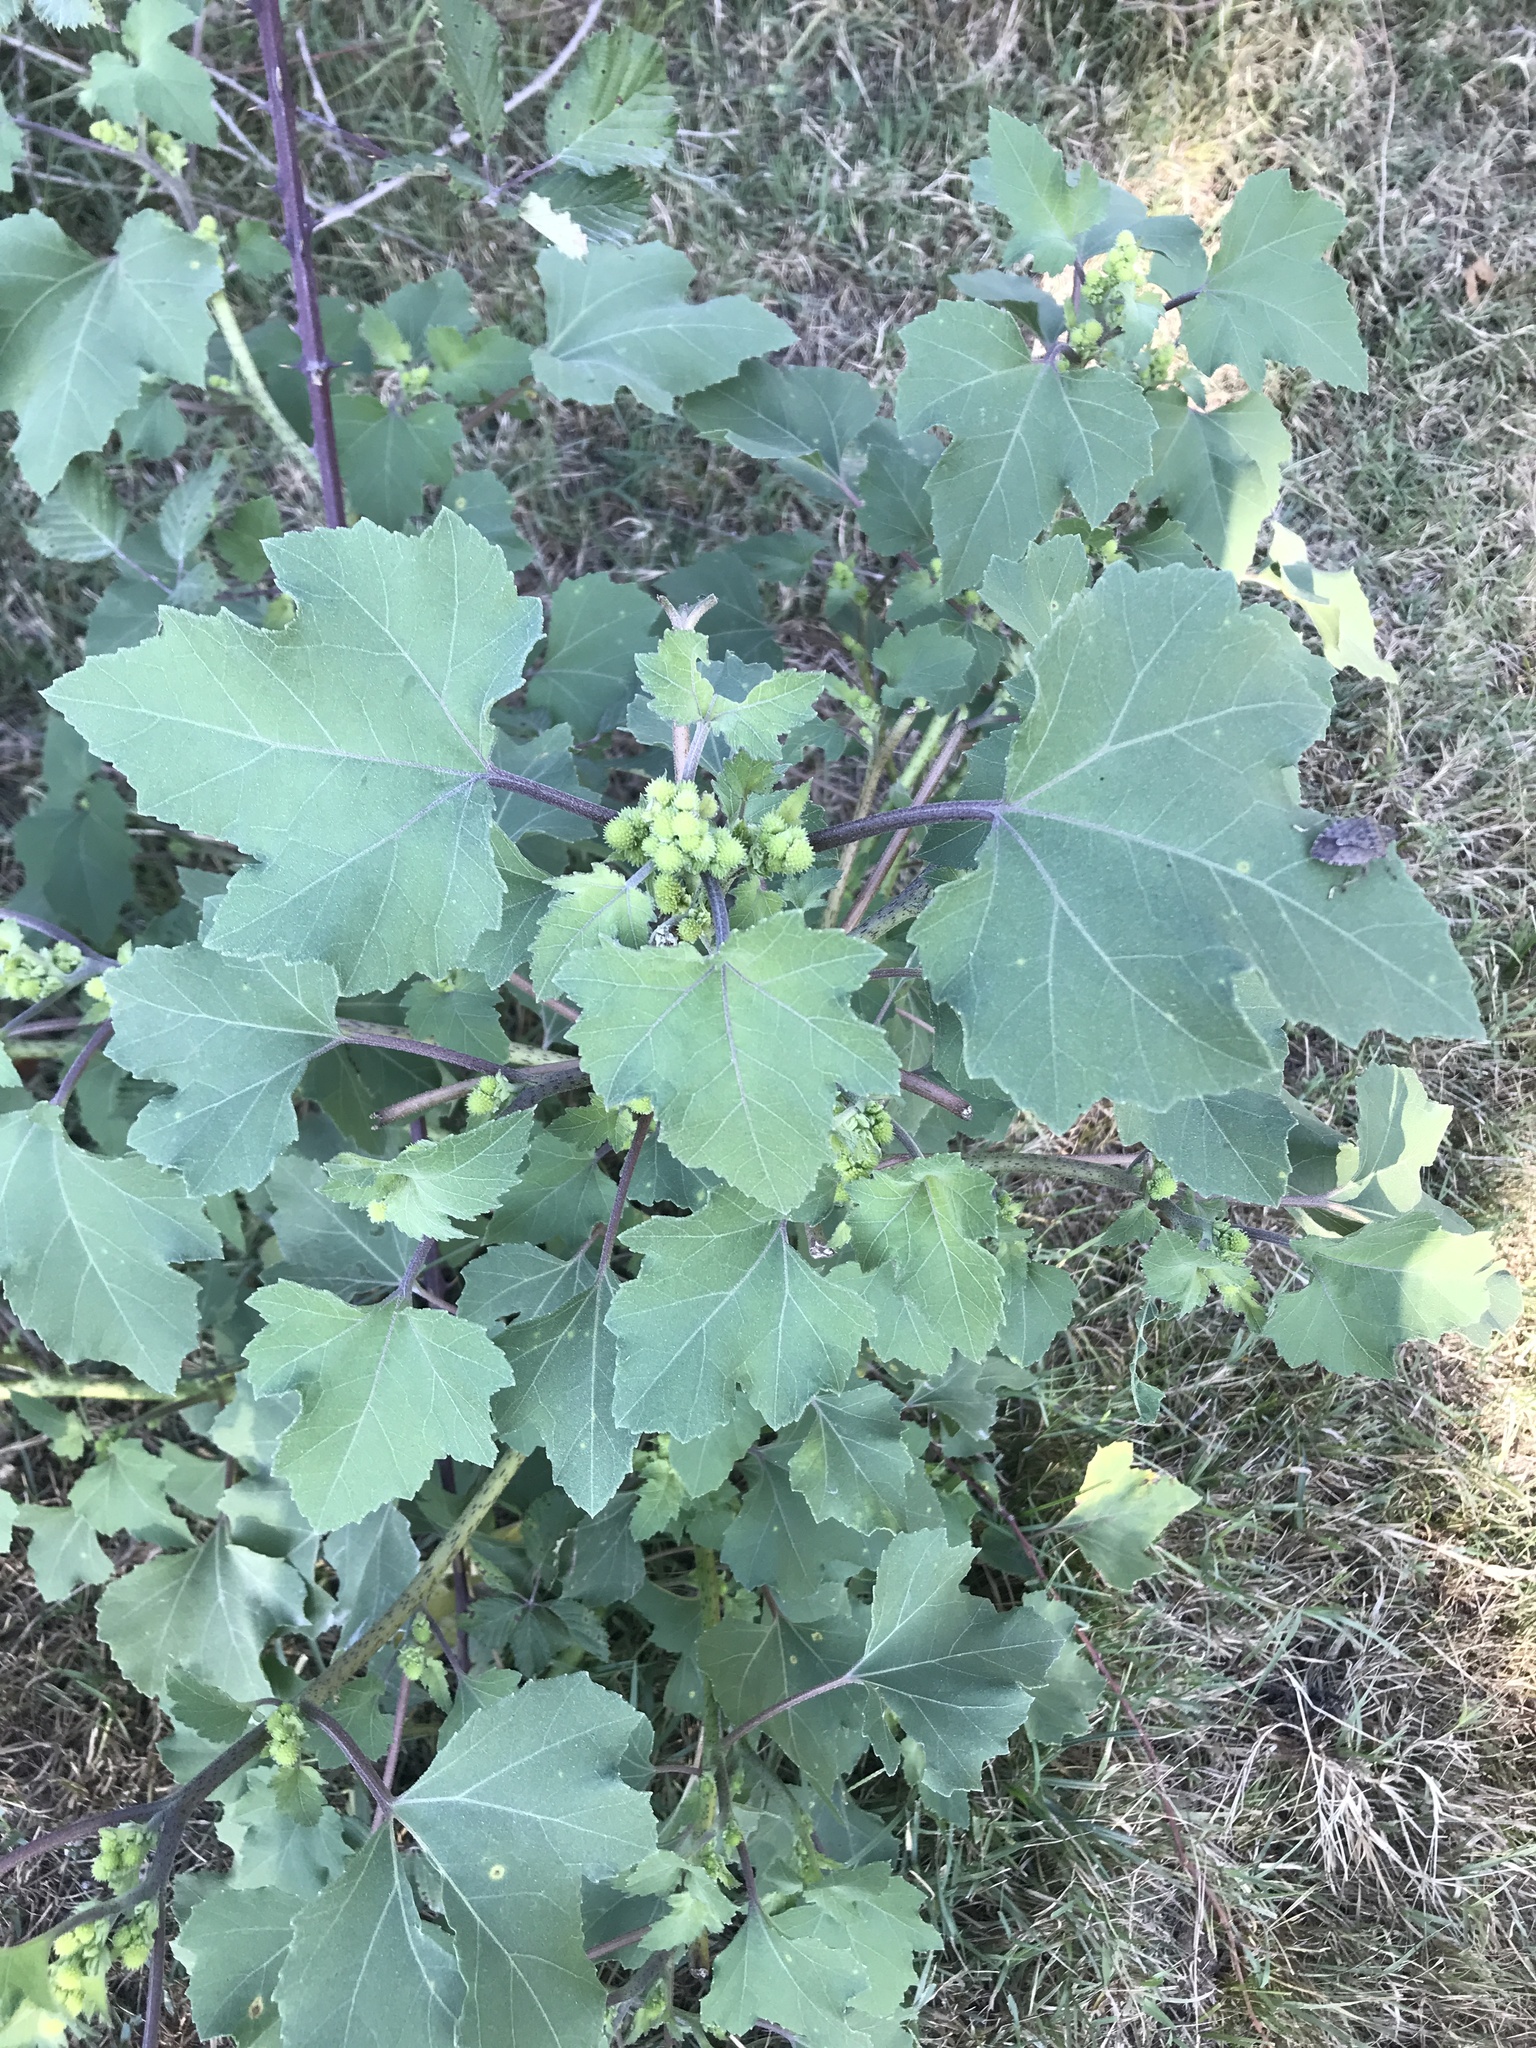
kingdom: Plantae
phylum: Tracheophyta
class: Magnoliopsida
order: Asterales
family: Asteraceae
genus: Xanthium
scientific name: Xanthium orientale
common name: Californian burr
